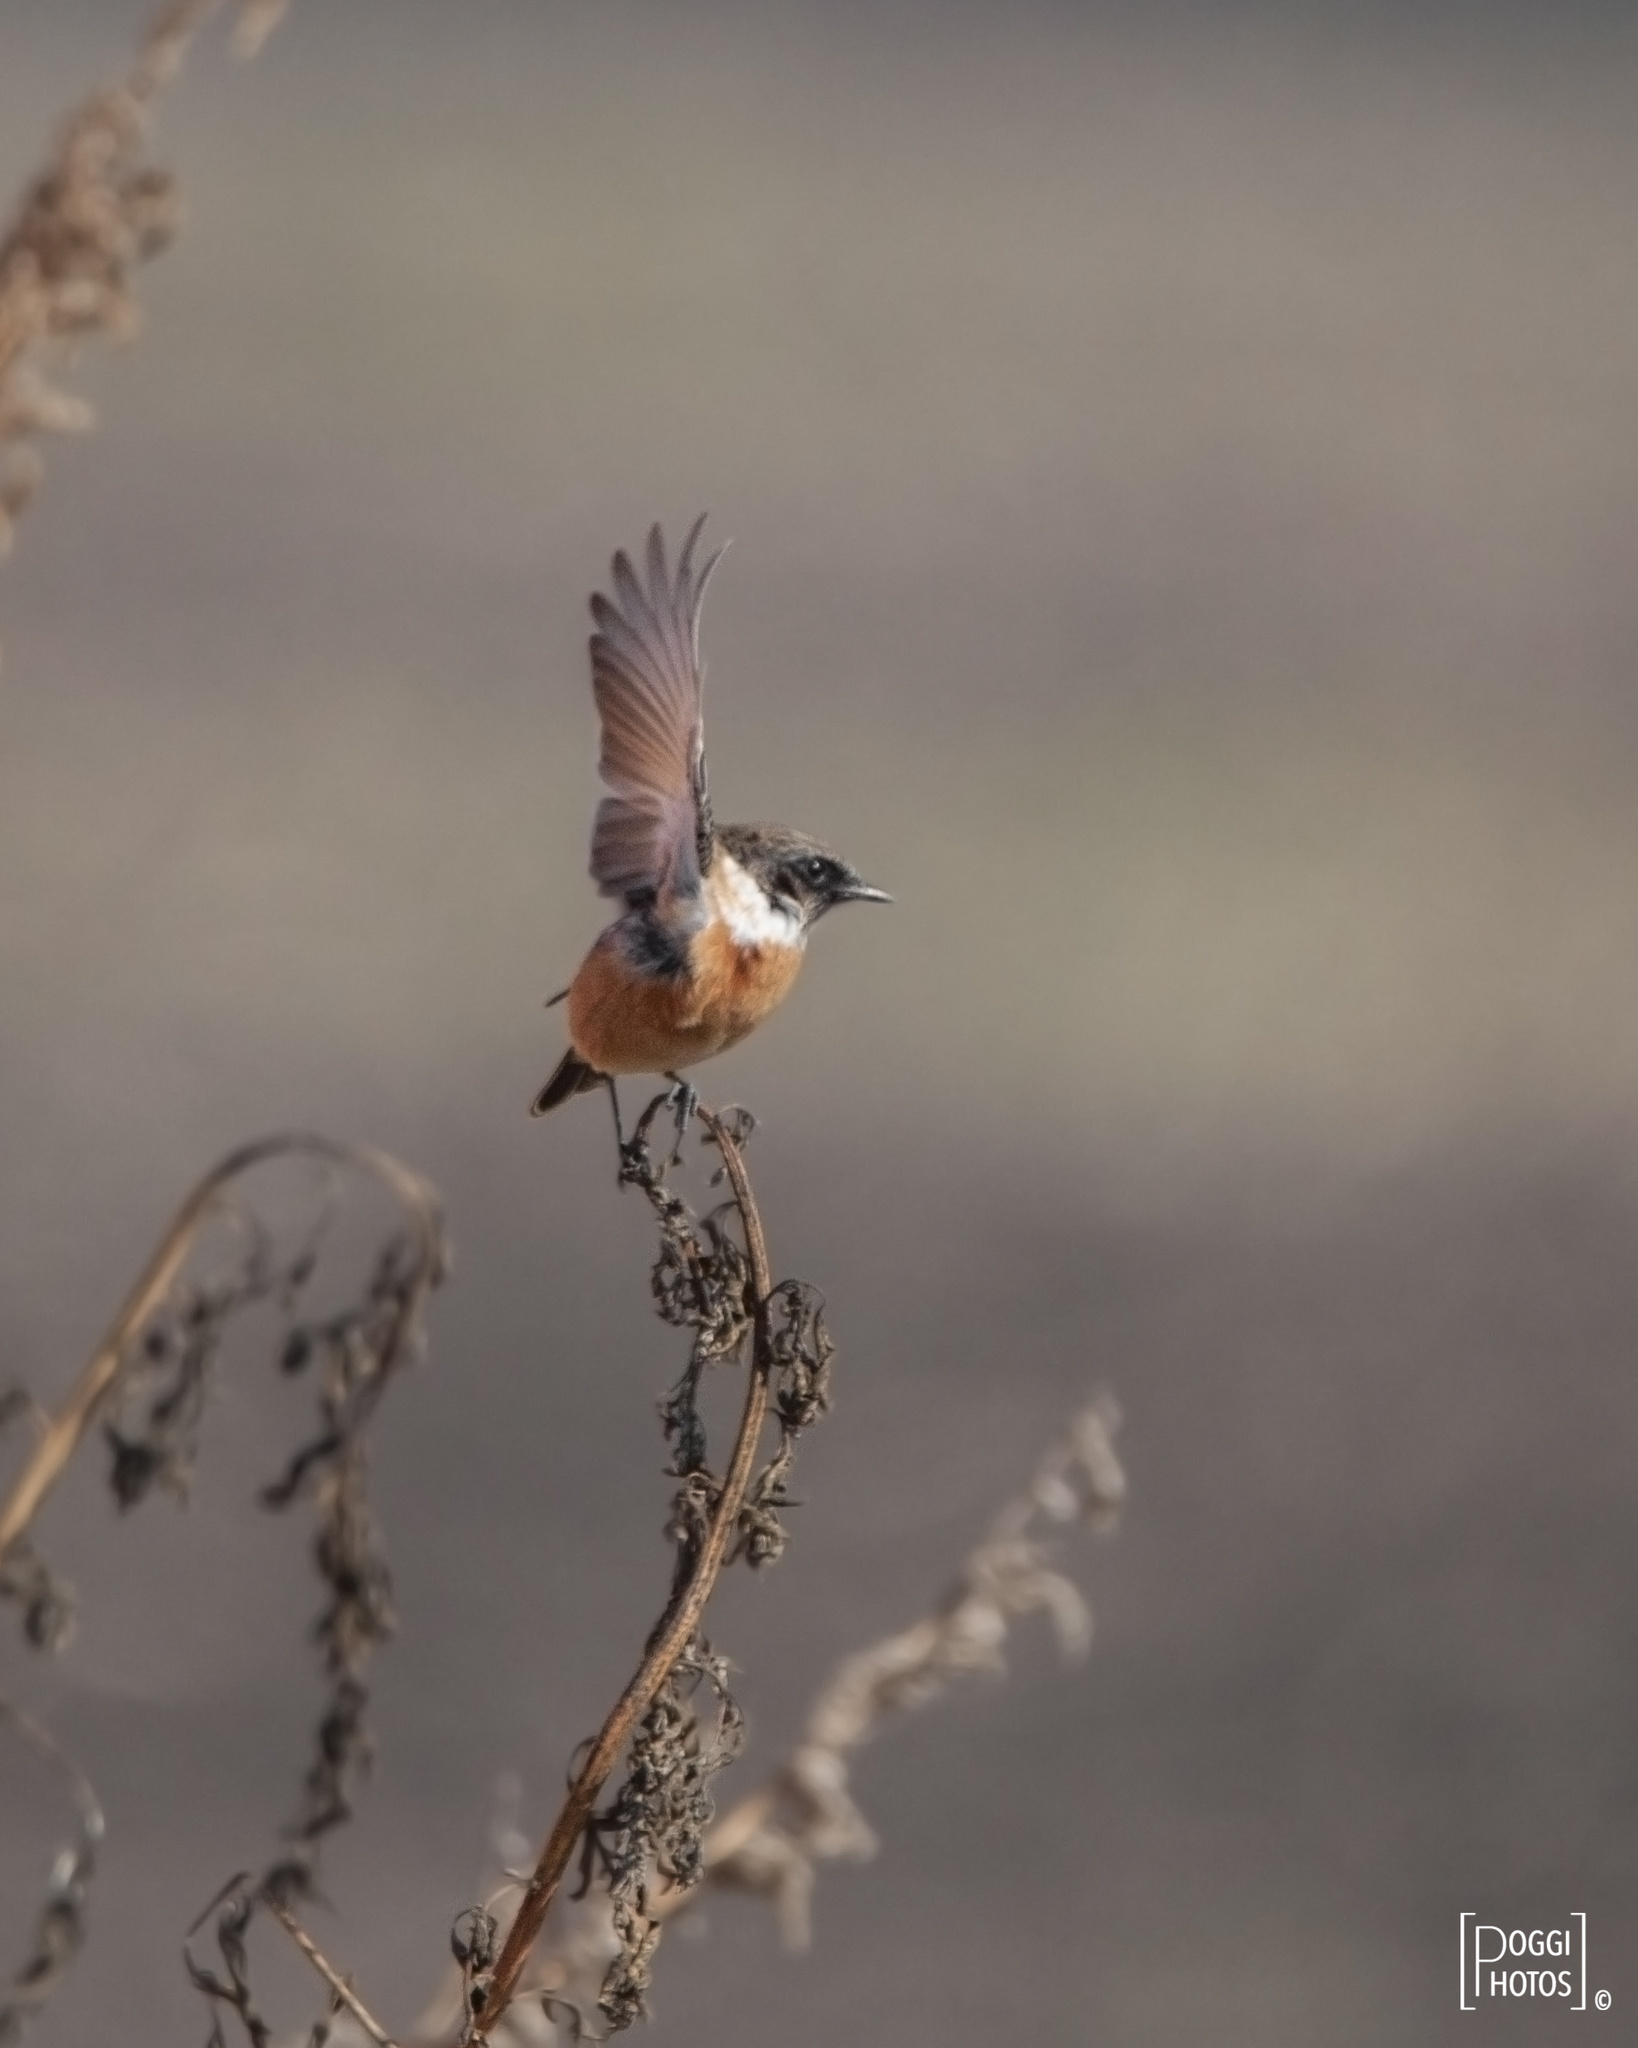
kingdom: Animalia
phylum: Chordata
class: Aves
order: Passeriformes
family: Muscicapidae
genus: Saxicola
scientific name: Saxicola rubicola
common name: European stonechat
